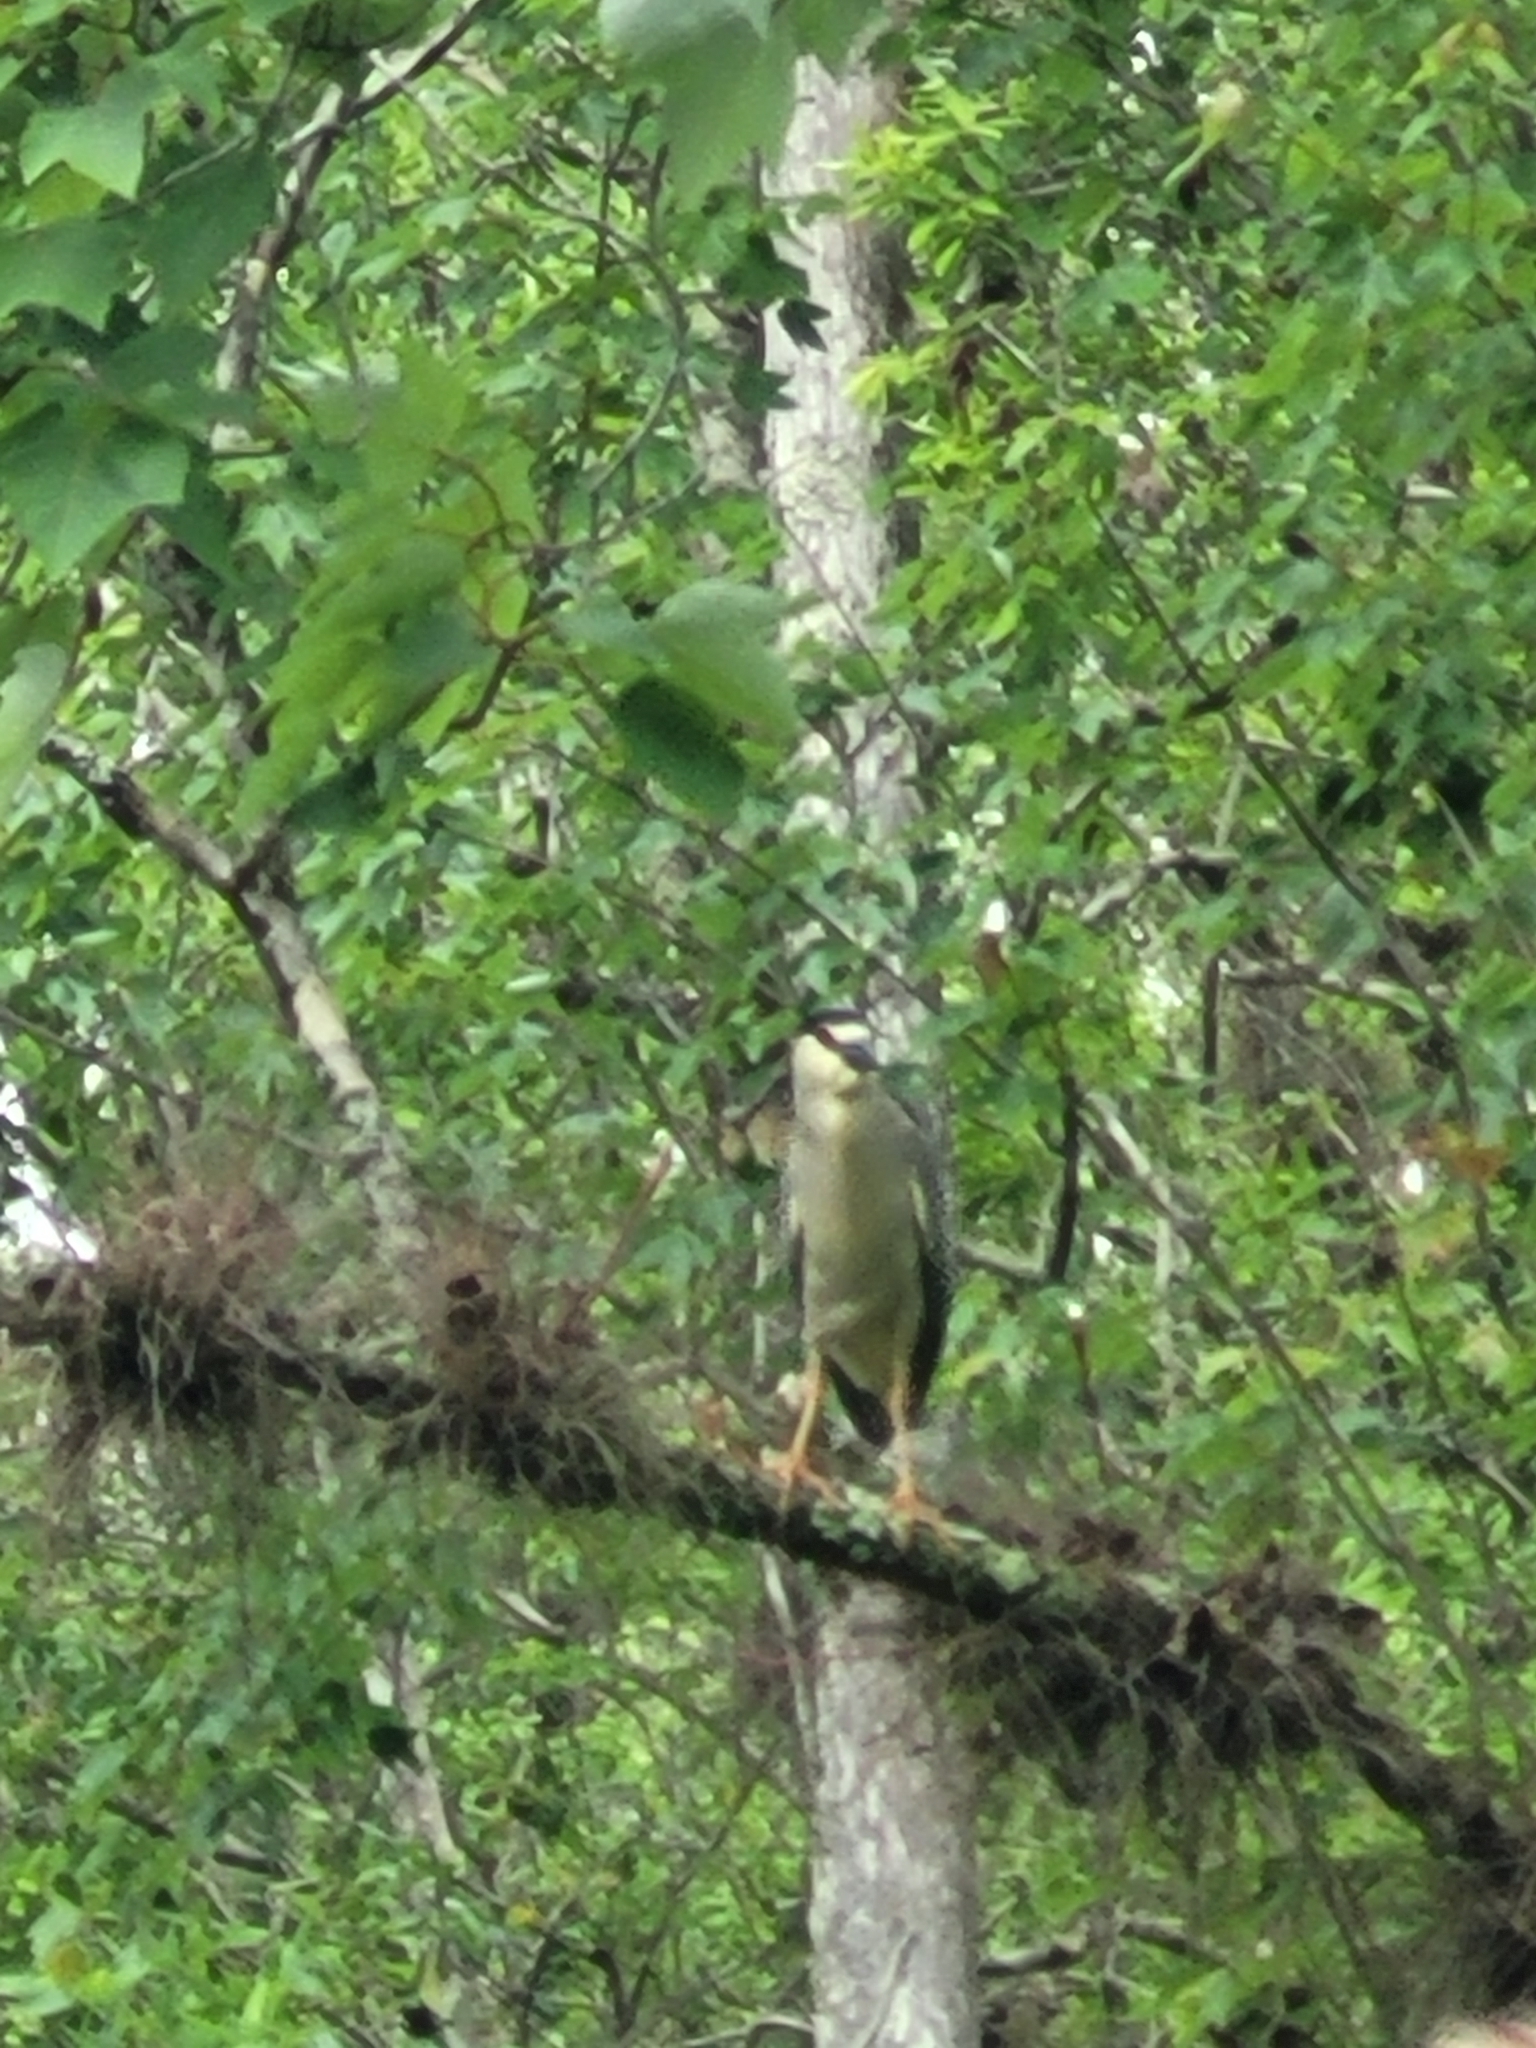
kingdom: Animalia
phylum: Chordata
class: Aves
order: Pelecaniformes
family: Ardeidae
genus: Nycticorax
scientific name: Nycticorax nycticorax
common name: Black-crowned night heron
